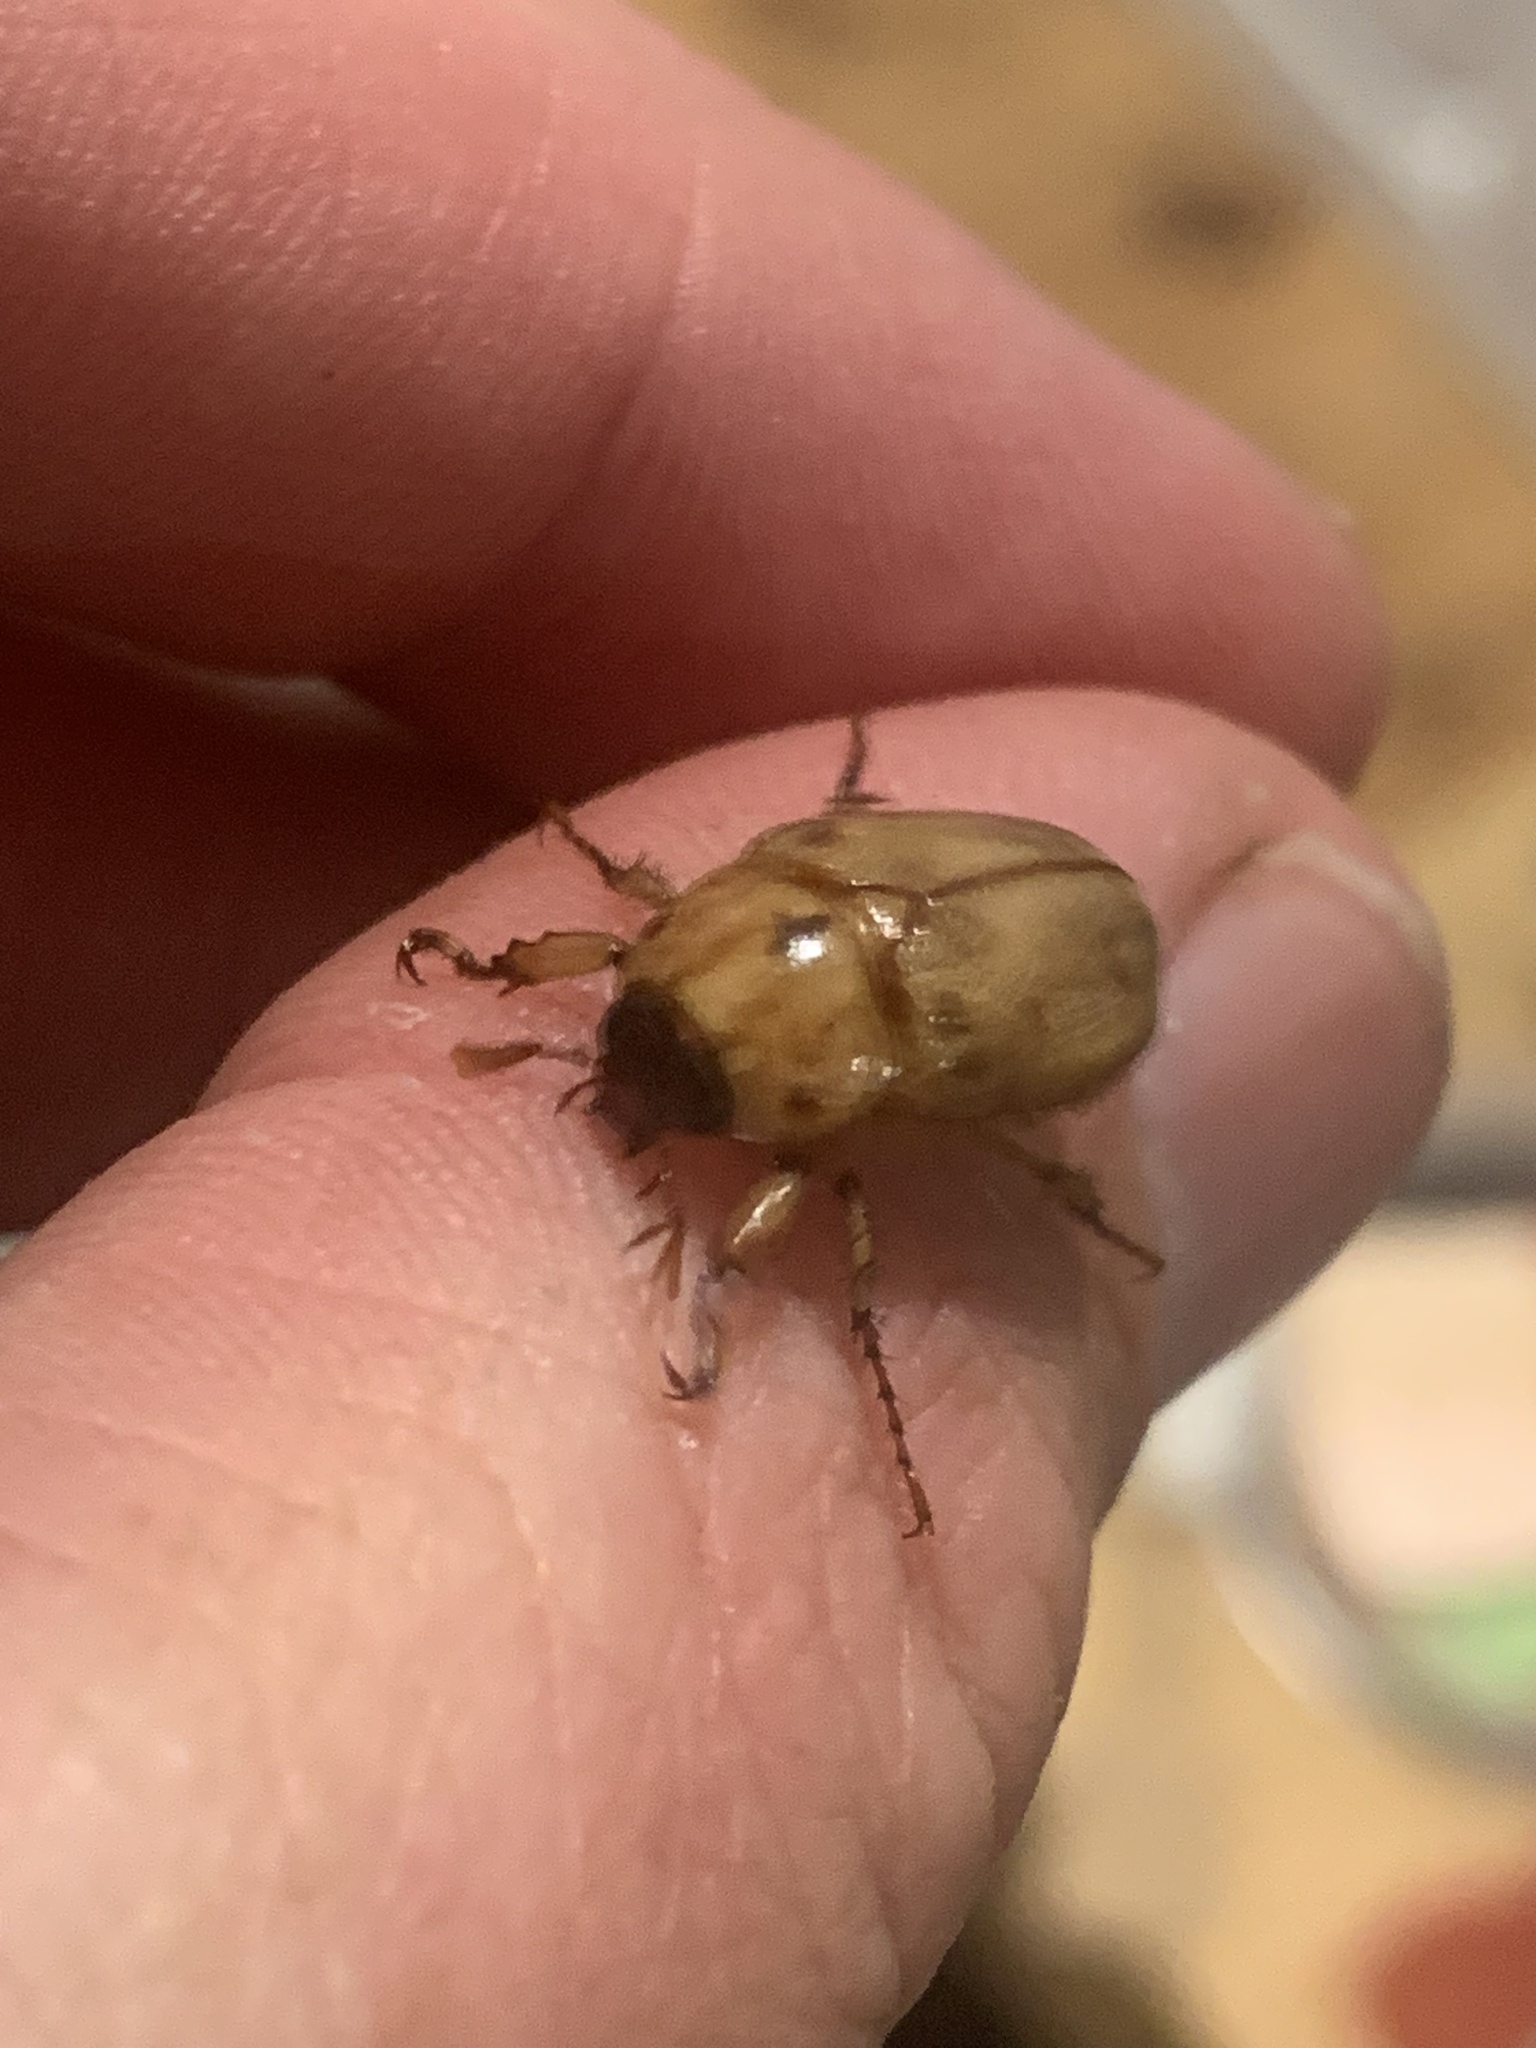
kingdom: Animalia
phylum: Arthropoda
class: Insecta
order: Coleoptera
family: Scarabaeidae
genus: Cyclocephala
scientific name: Cyclocephala signaticollis
